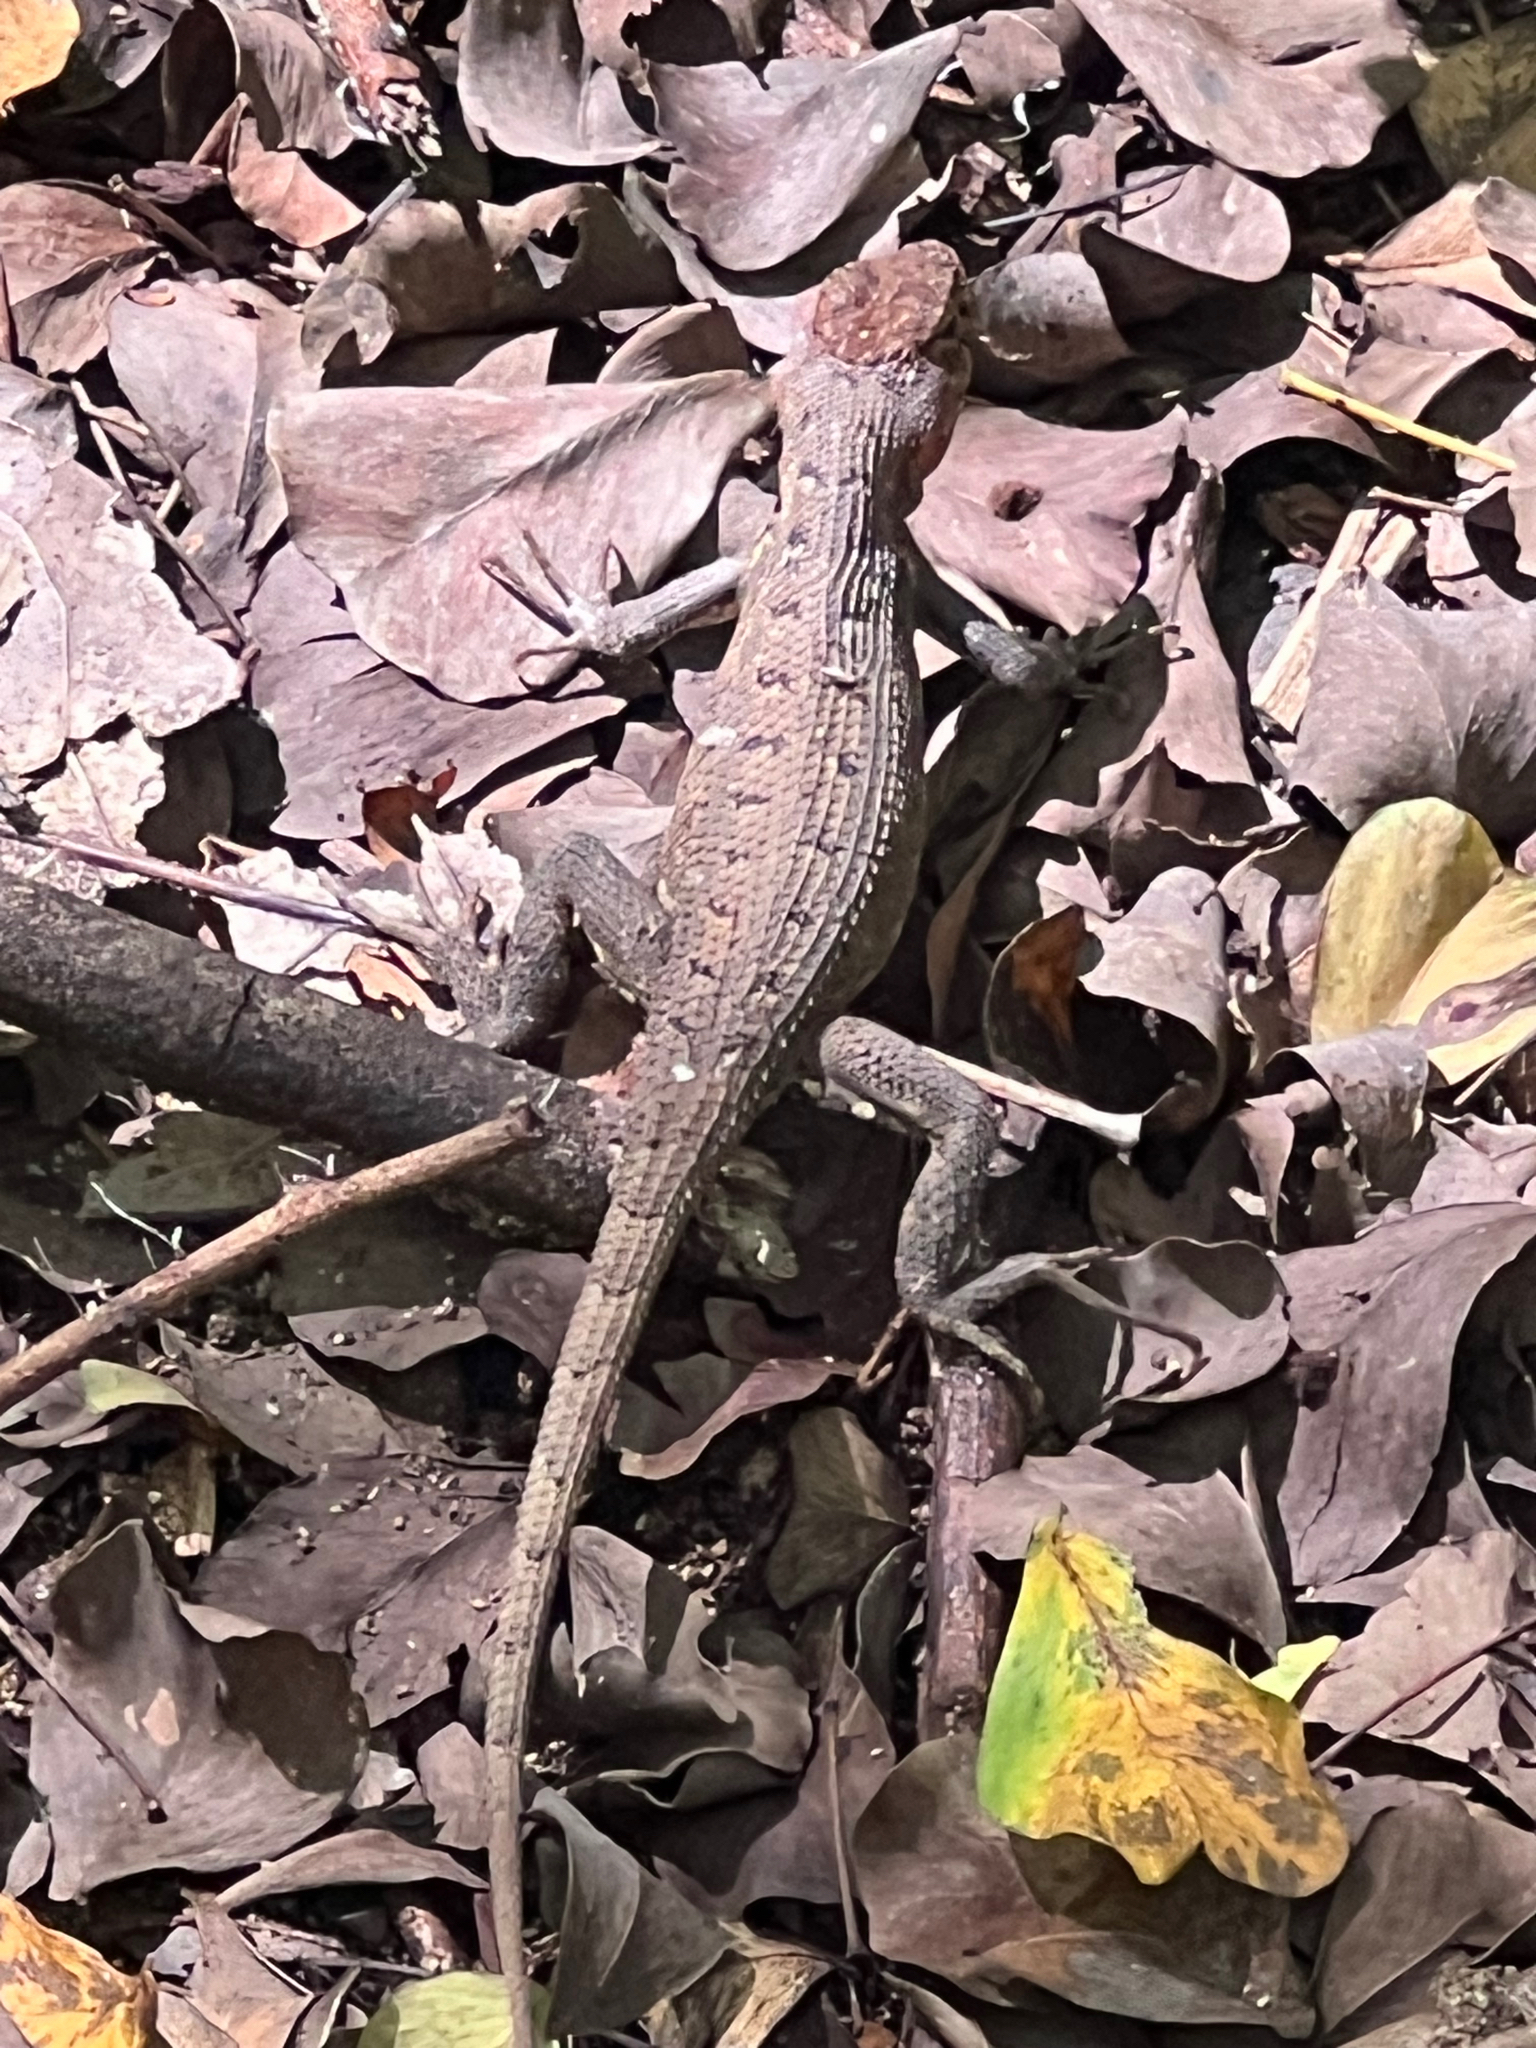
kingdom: Animalia
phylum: Chordata
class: Squamata
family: Phrynosomatidae
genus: Sceloporus
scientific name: Sceloporus squamosus
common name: Dwarf spiny lizard
